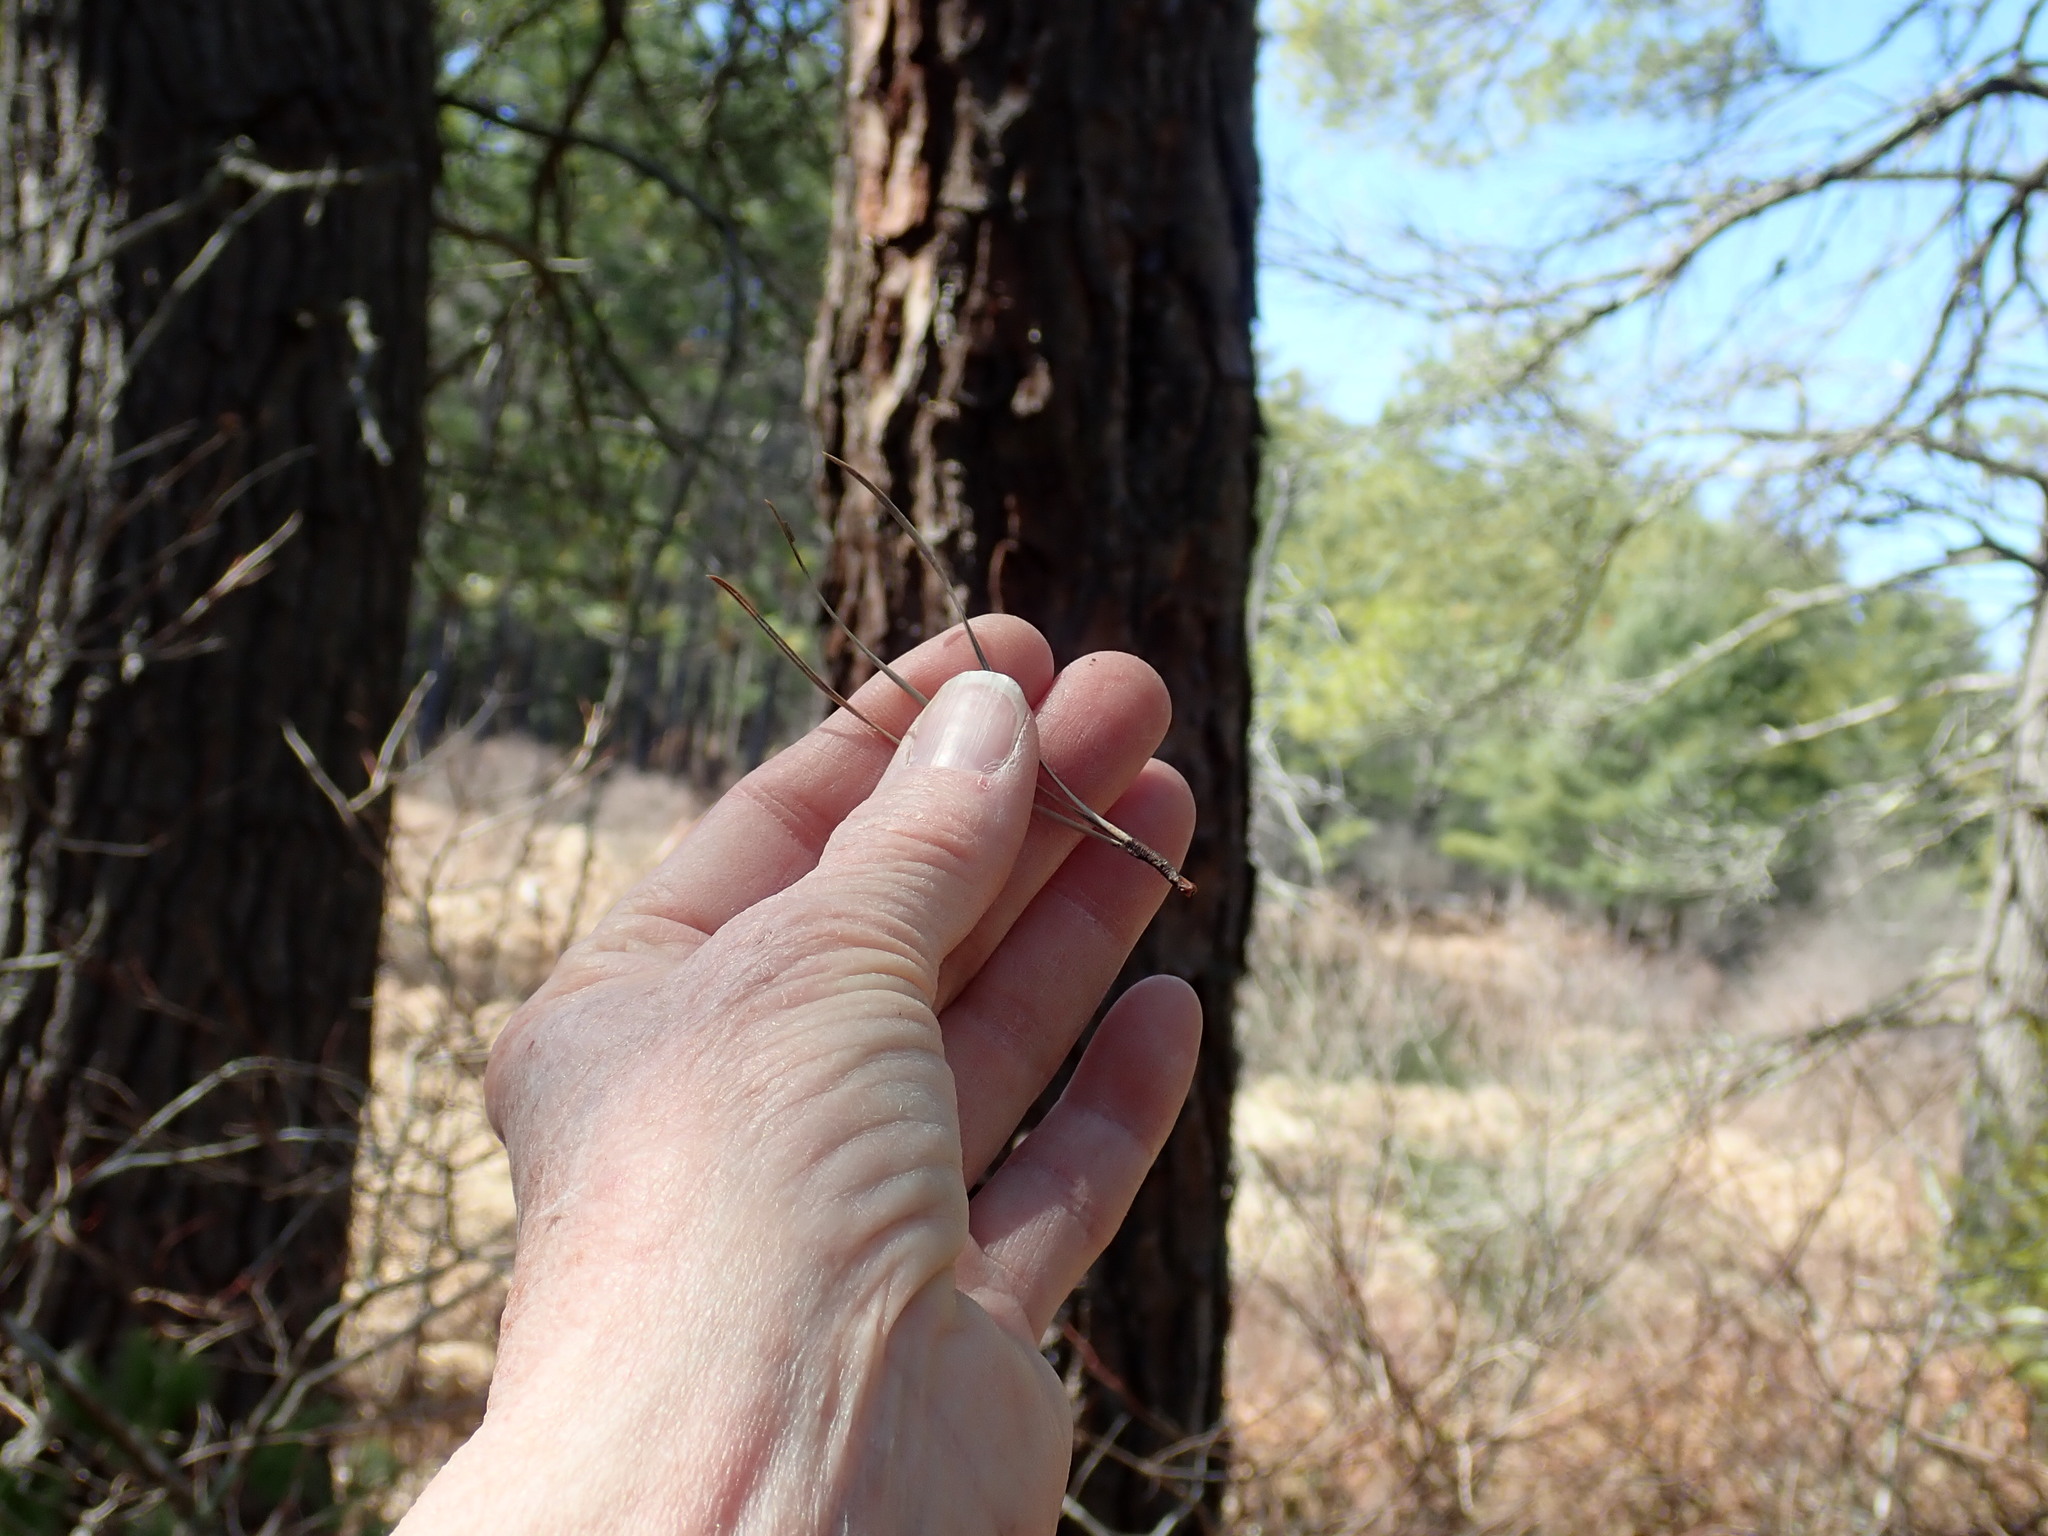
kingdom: Plantae
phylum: Tracheophyta
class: Pinopsida
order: Pinales
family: Pinaceae
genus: Pinus
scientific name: Pinus rigida
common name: Pitch pine
